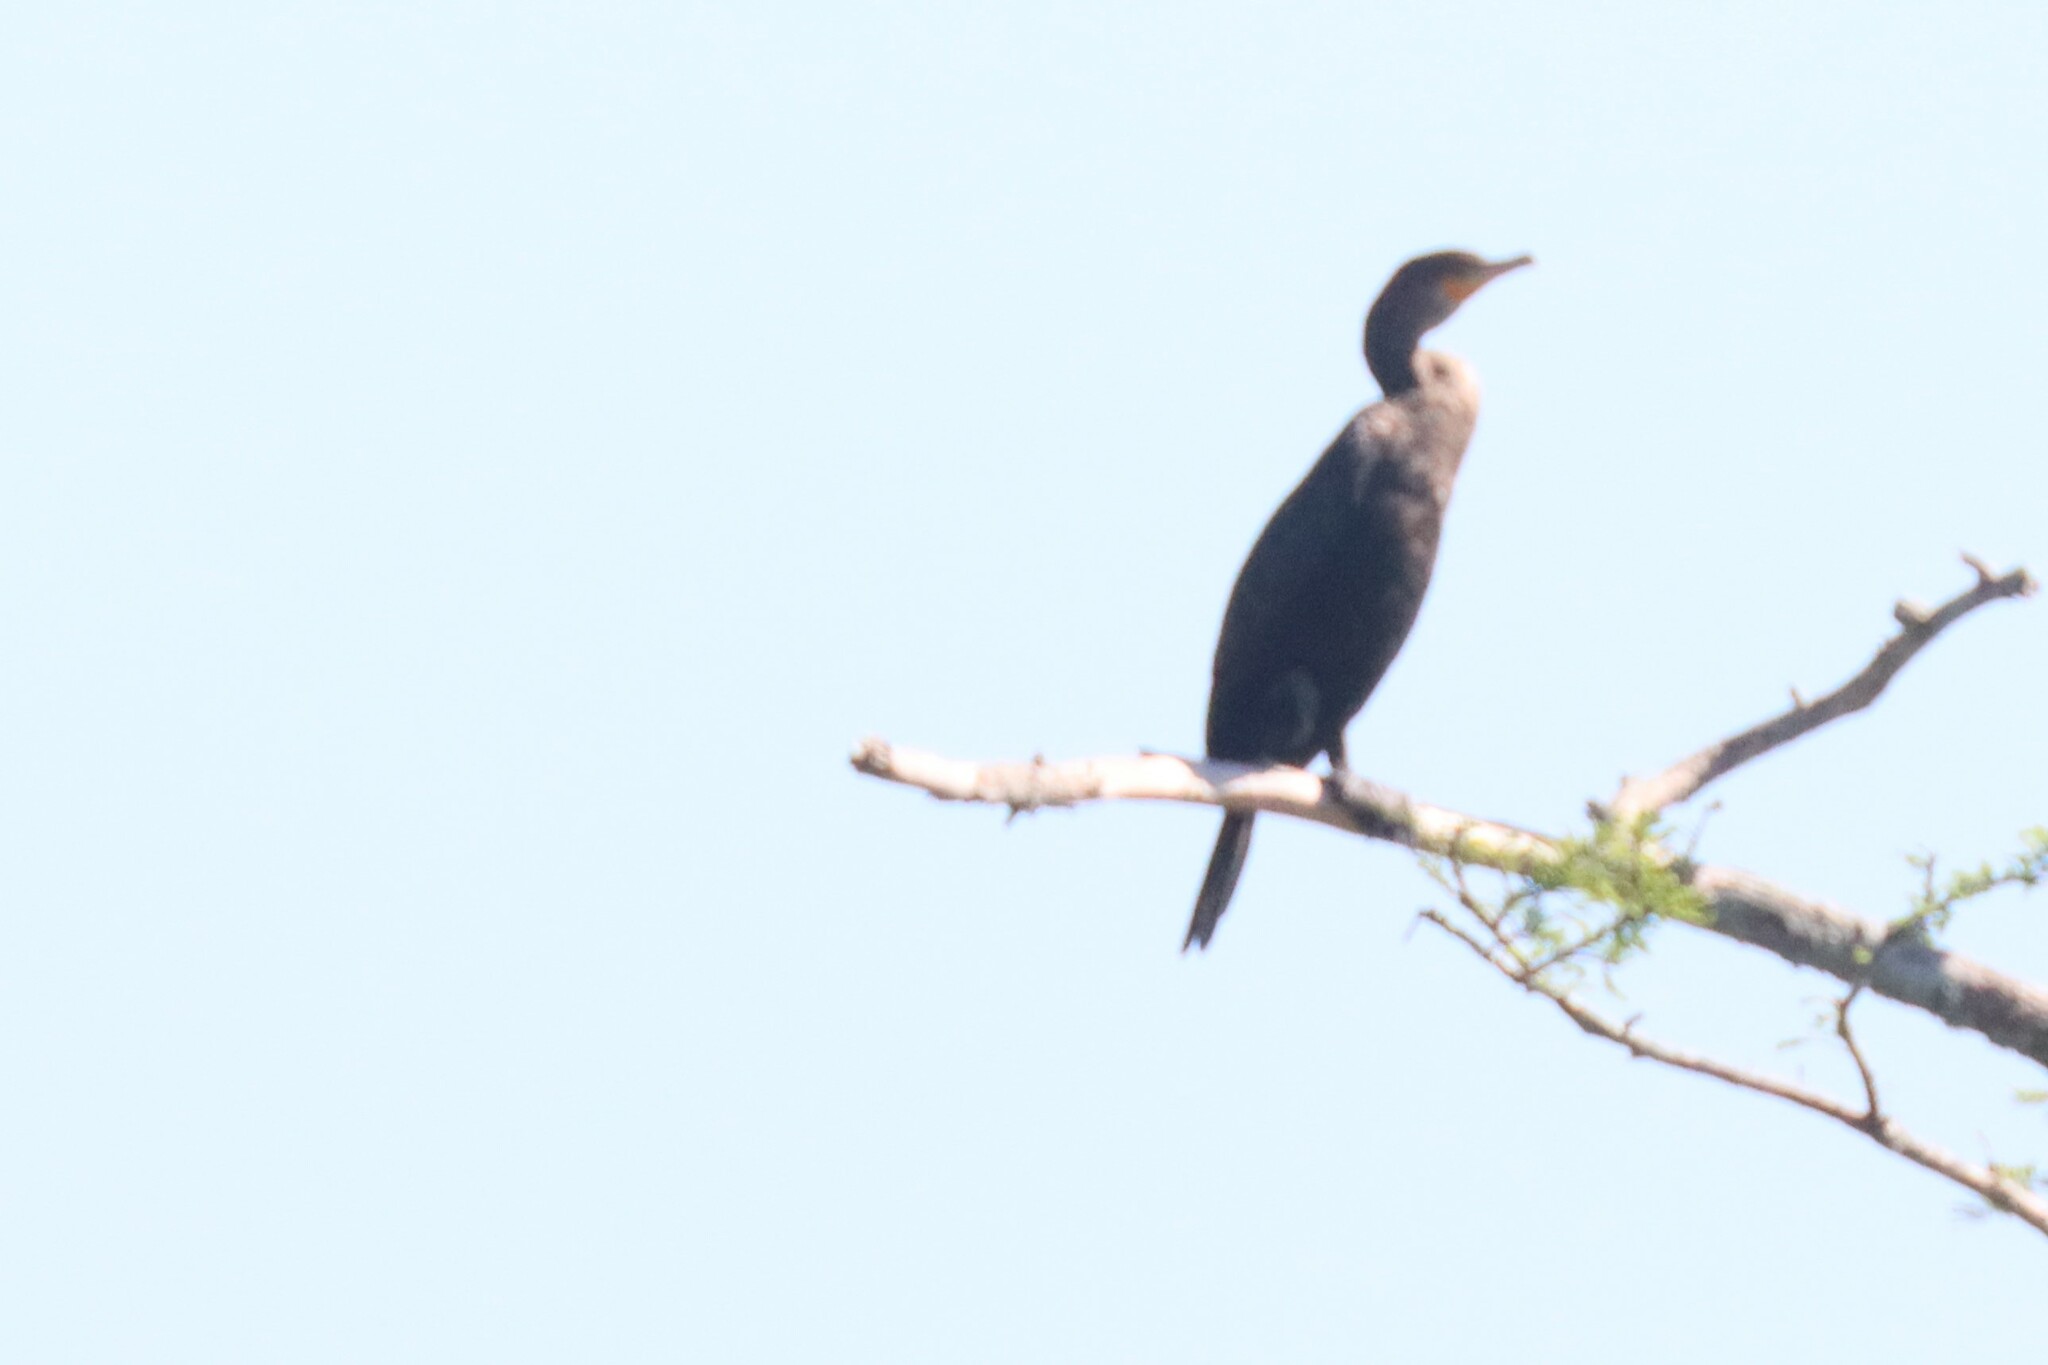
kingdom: Animalia
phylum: Chordata
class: Aves
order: Suliformes
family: Phalacrocoracidae
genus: Phalacrocorax
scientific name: Phalacrocorax auritus
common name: Double-crested cormorant
